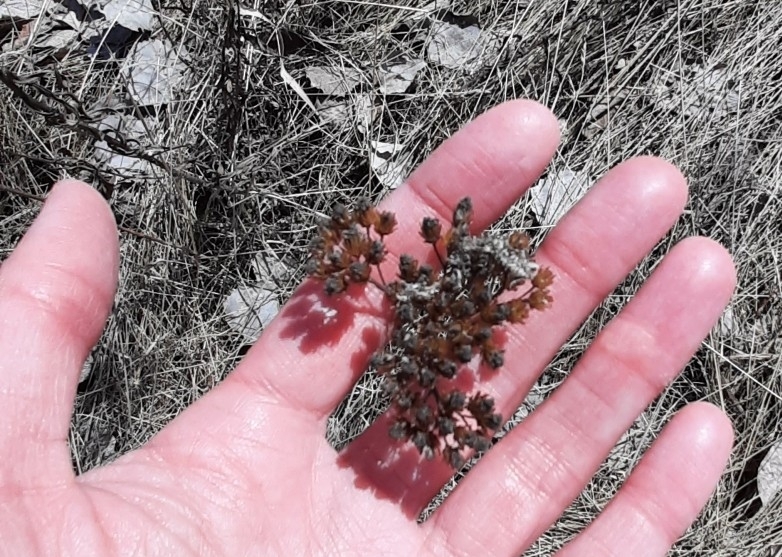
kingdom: Plantae
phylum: Tracheophyta
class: Magnoliopsida
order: Asterales
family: Asteraceae
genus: Achillea
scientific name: Achillea millefolium
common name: Yarrow
